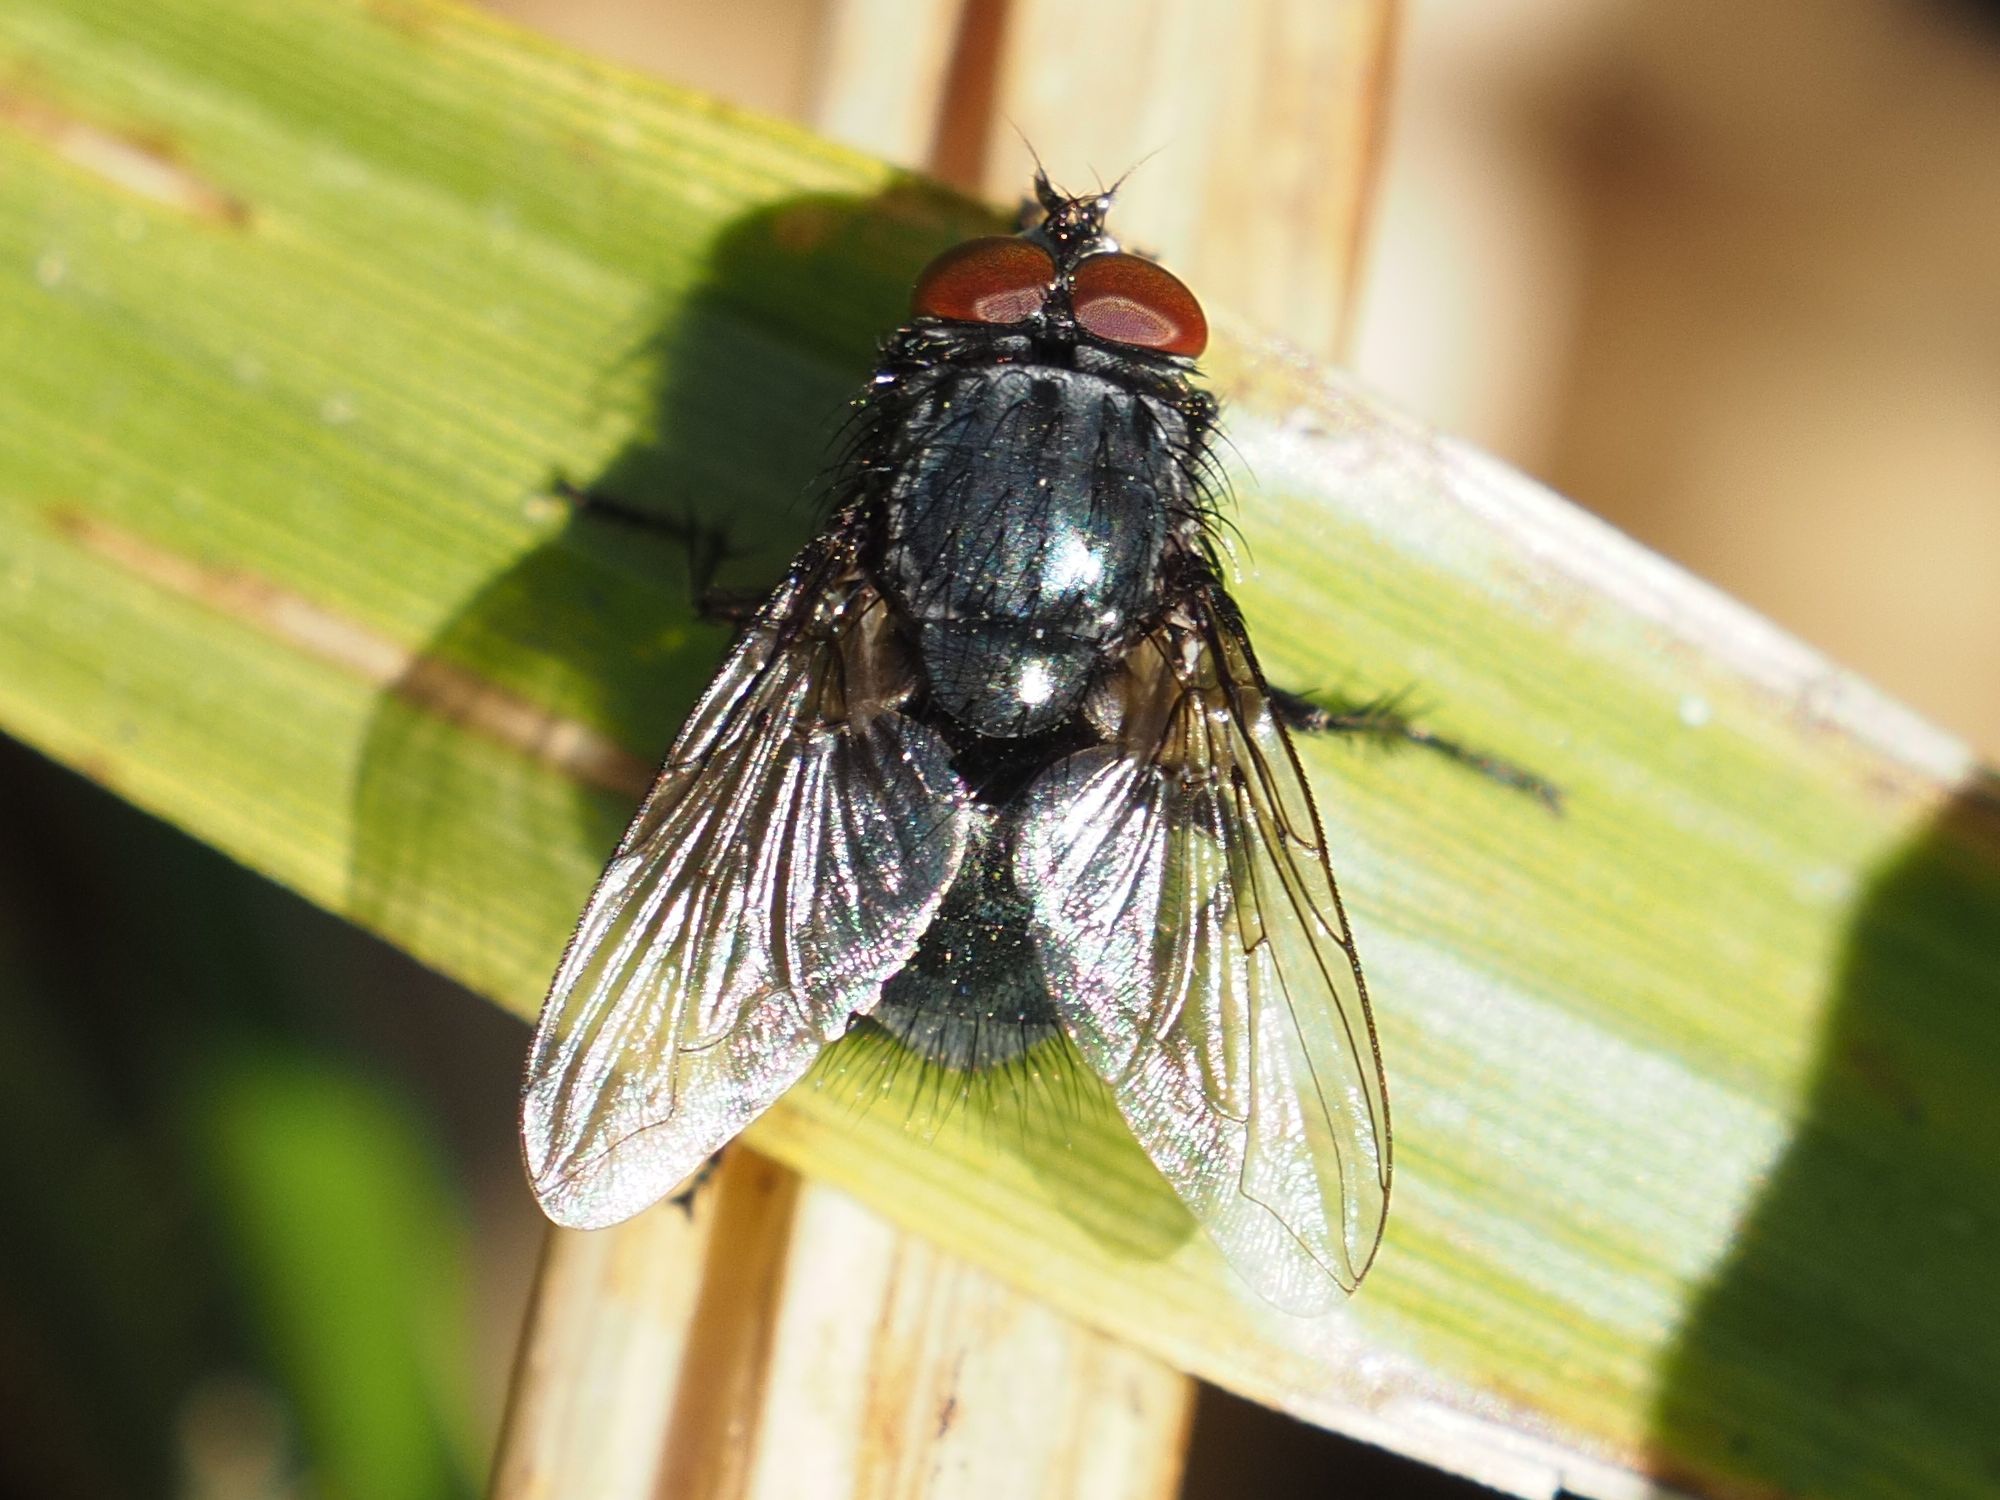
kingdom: Animalia
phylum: Arthropoda
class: Insecta
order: Diptera
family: Calliphoridae
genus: Melinda
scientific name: Melinda gentilis
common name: Pale-palped melinda
